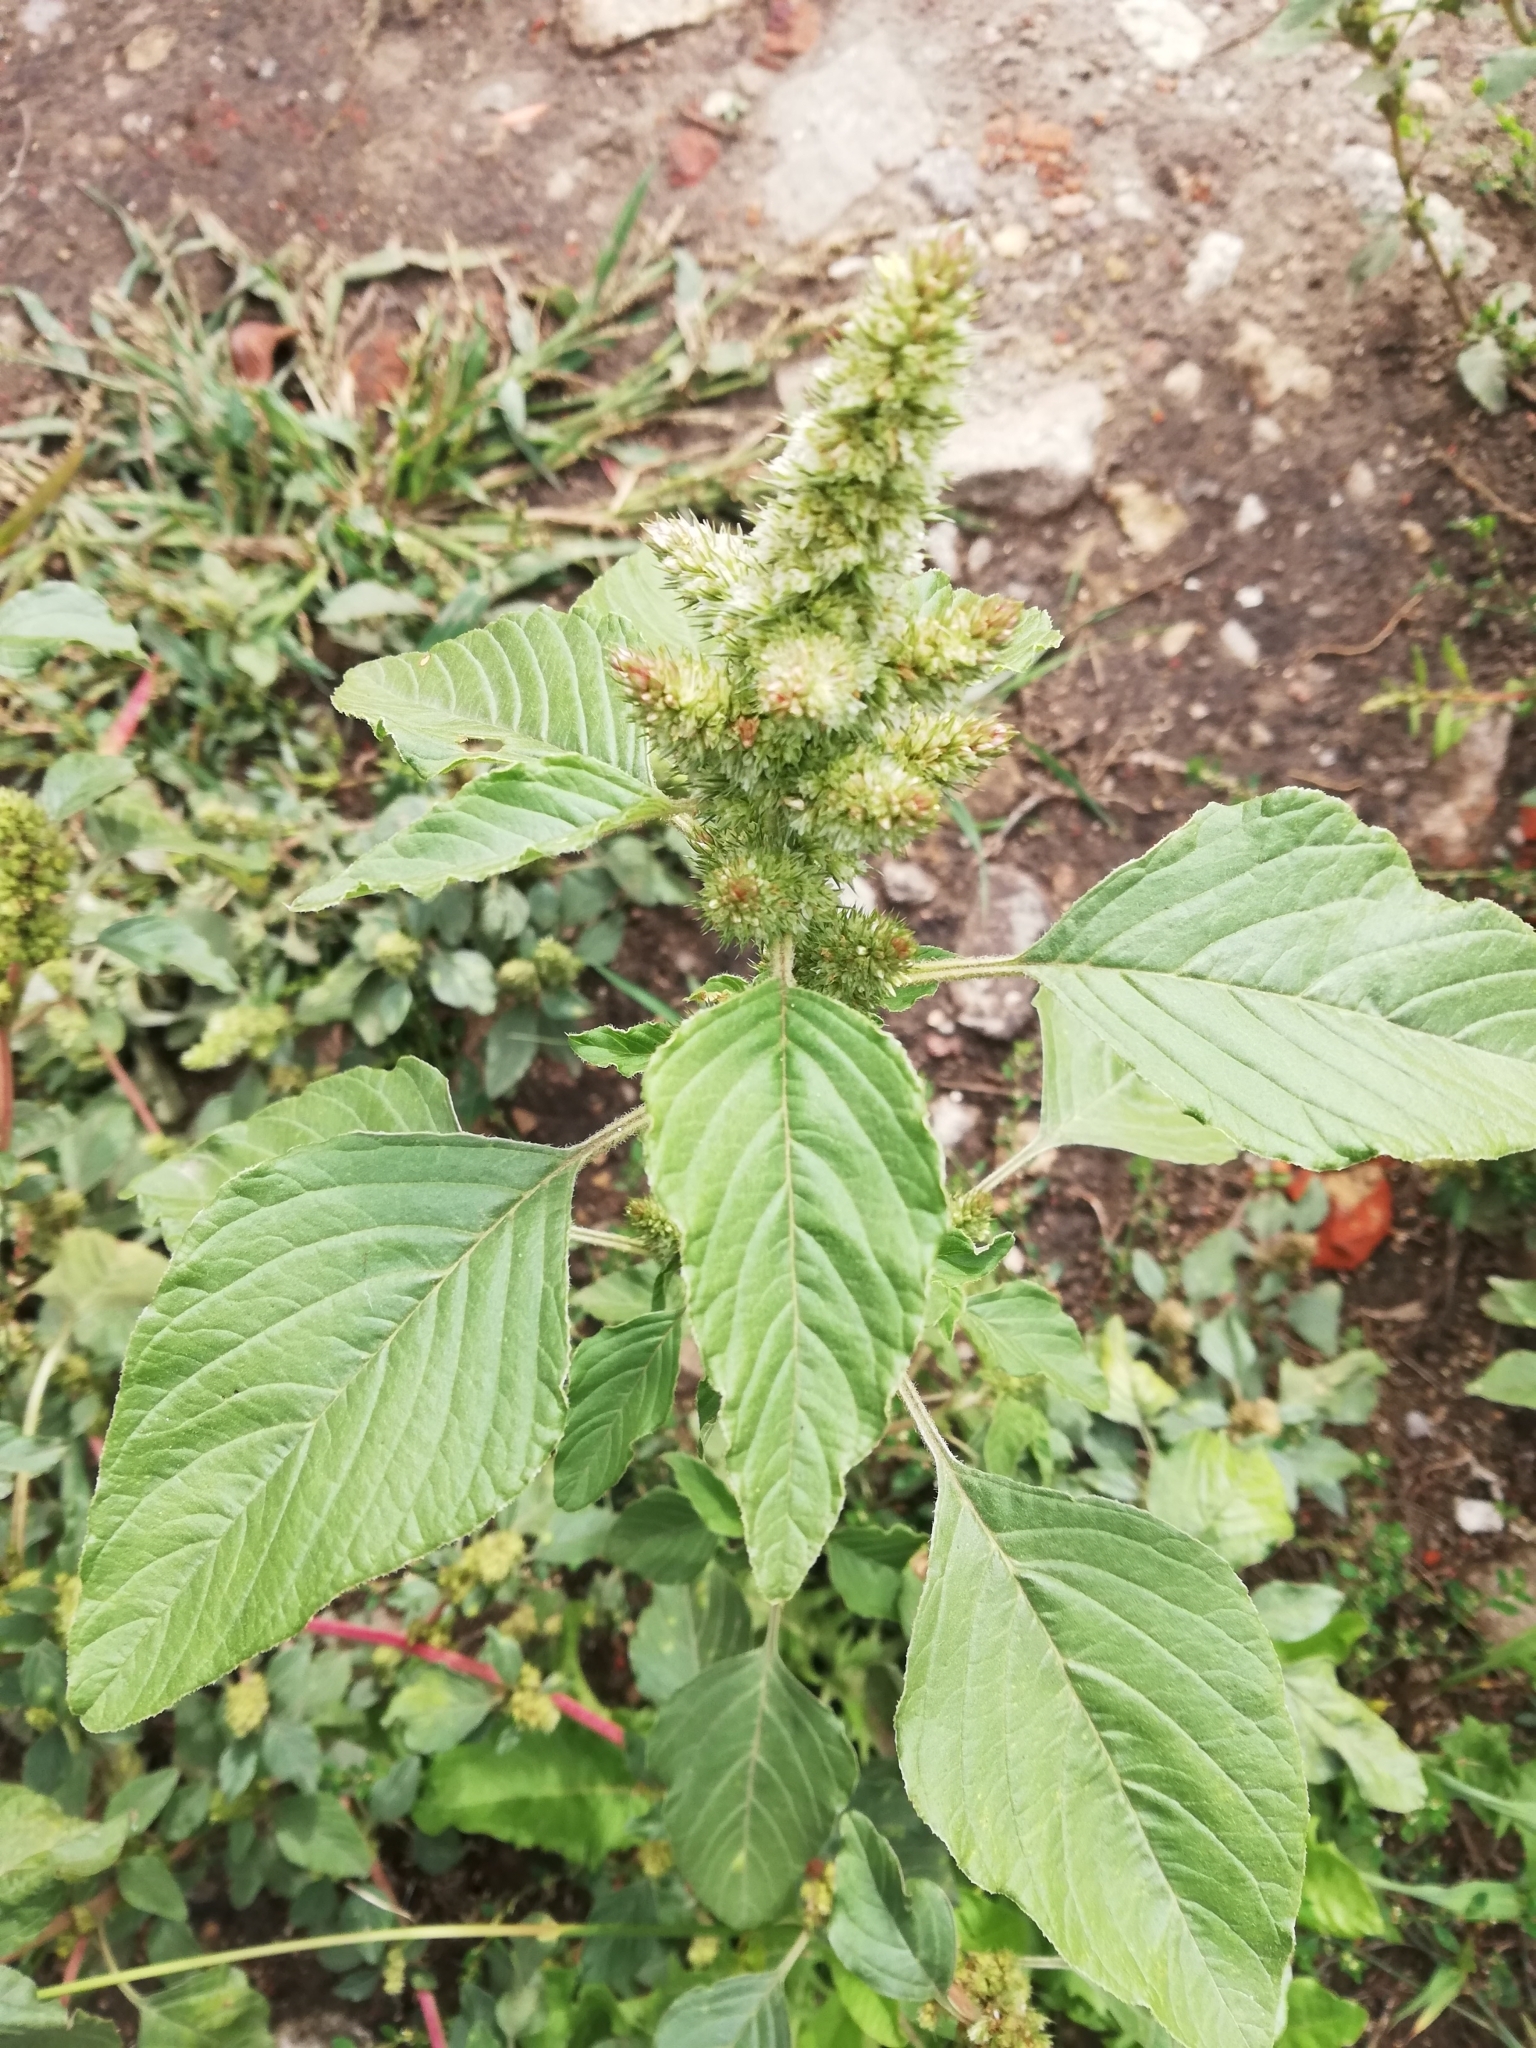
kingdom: Plantae
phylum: Tracheophyta
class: Magnoliopsida
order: Caryophyllales
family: Amaranthaceae
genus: Amaranthus
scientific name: Amaranthus retroflexus
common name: Redroot amaranth
